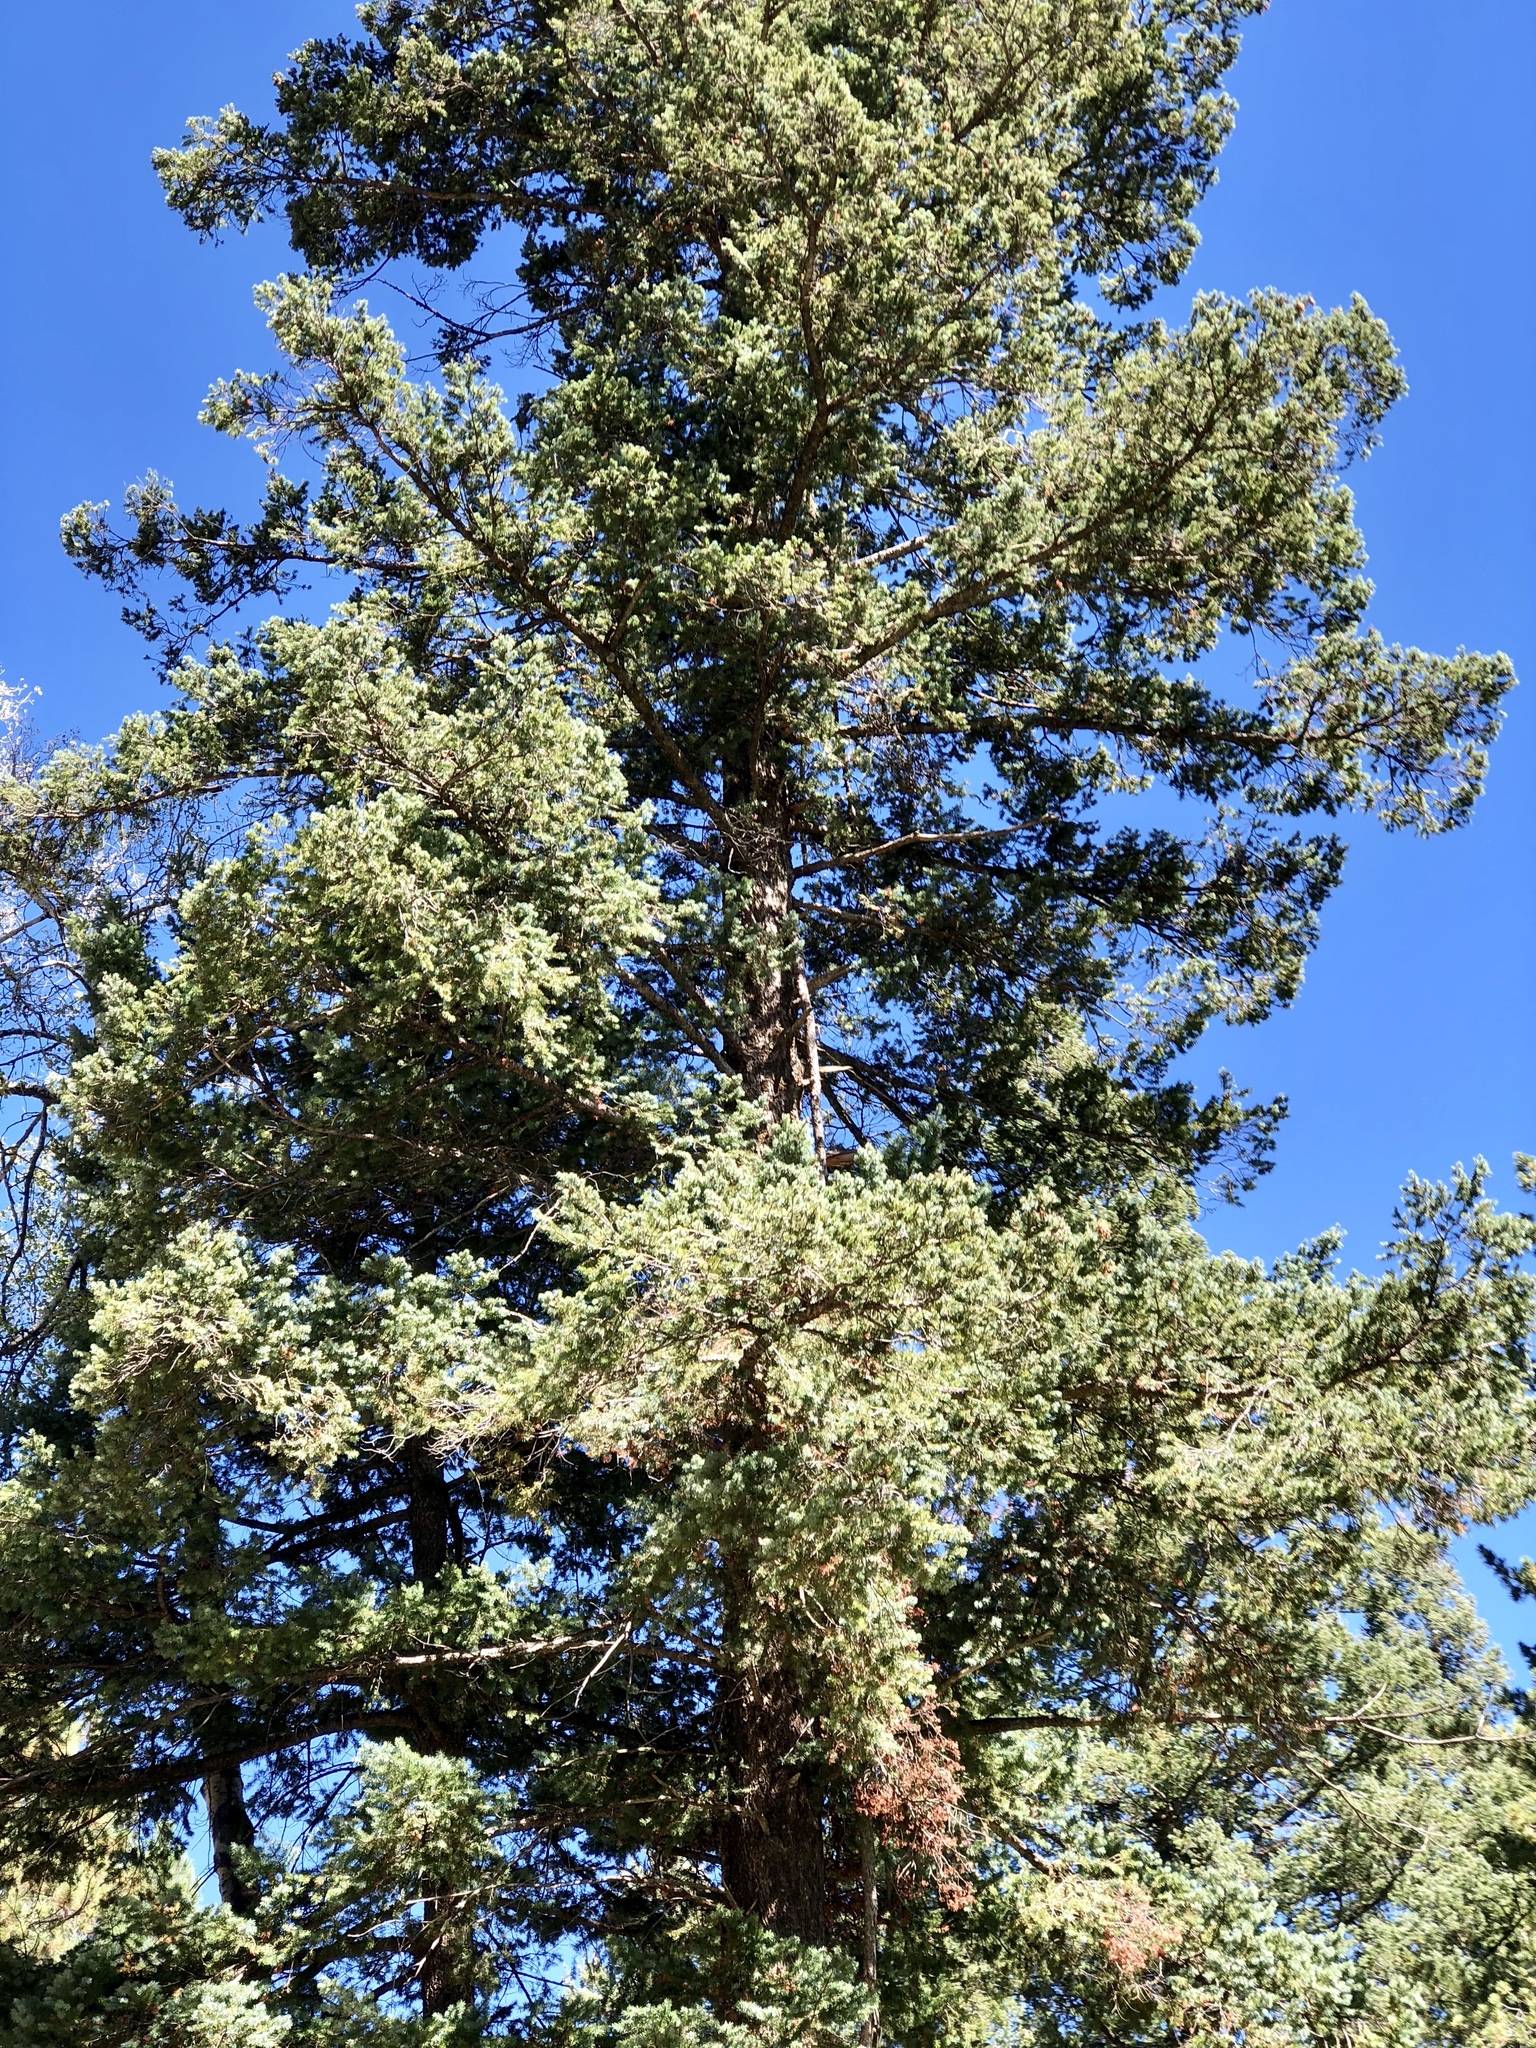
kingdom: Plantae
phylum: Tracheophyta
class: Pinopsida
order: Pinales
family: Pinaceae
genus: Pseudotsuga
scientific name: Pseudotsuga menziesii
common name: Douglas fir
